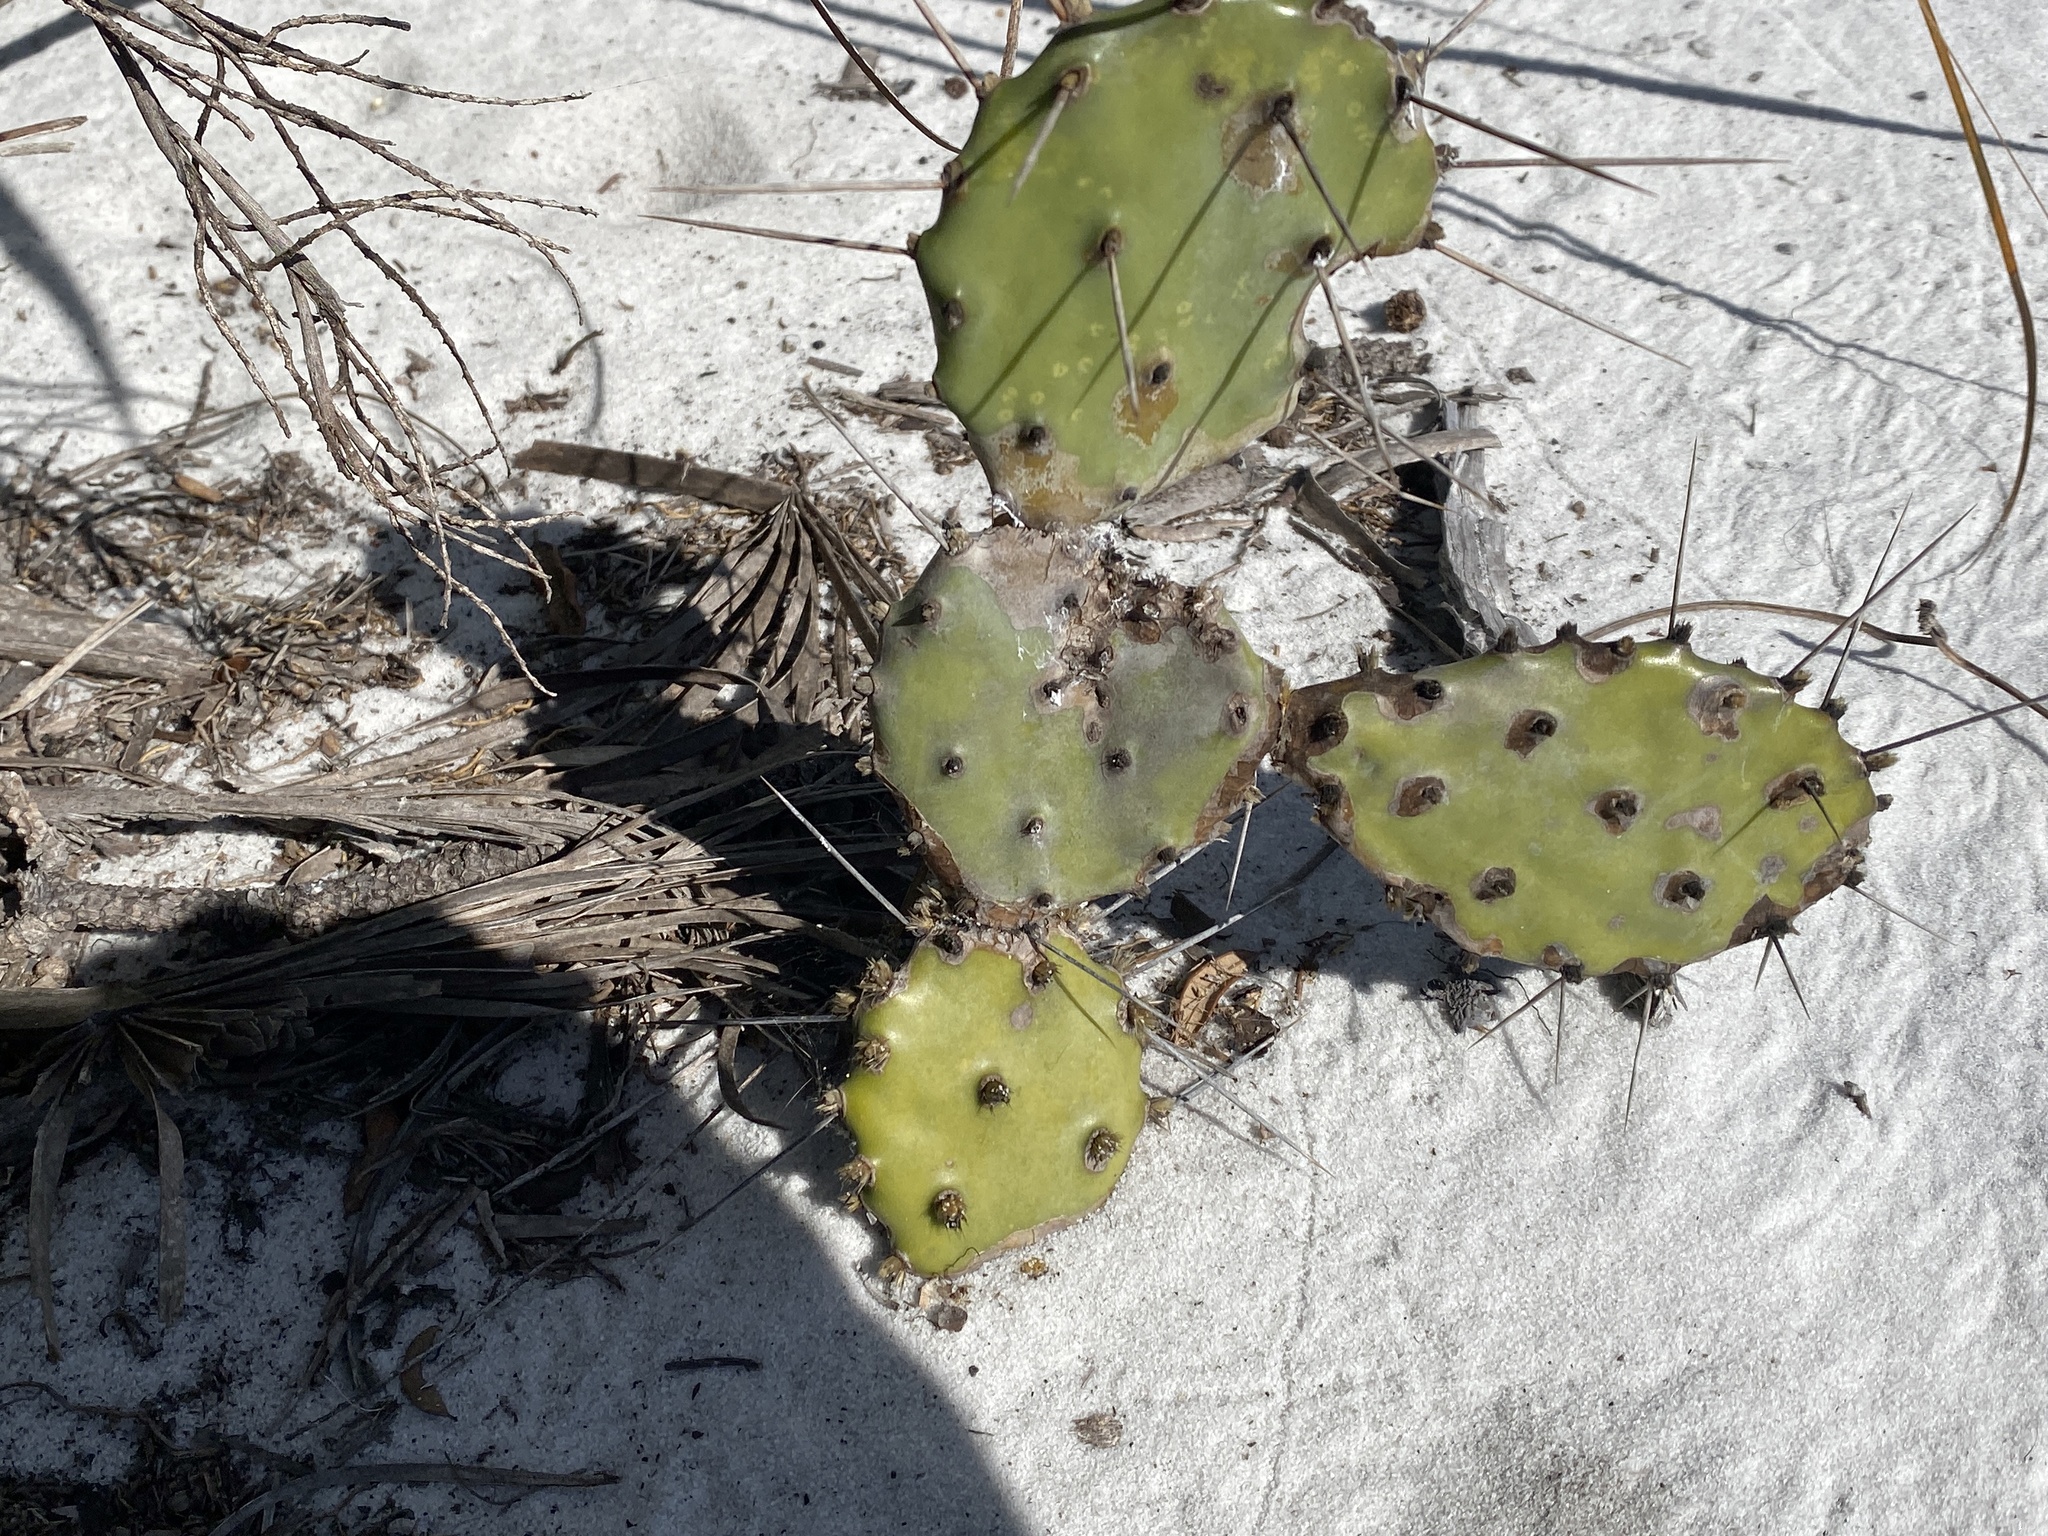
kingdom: Plantae
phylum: Tracheophyta
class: Magnoliopsida
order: Caryophyllales
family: Cactaceae
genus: Opuntia
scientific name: Opuntia austrina
